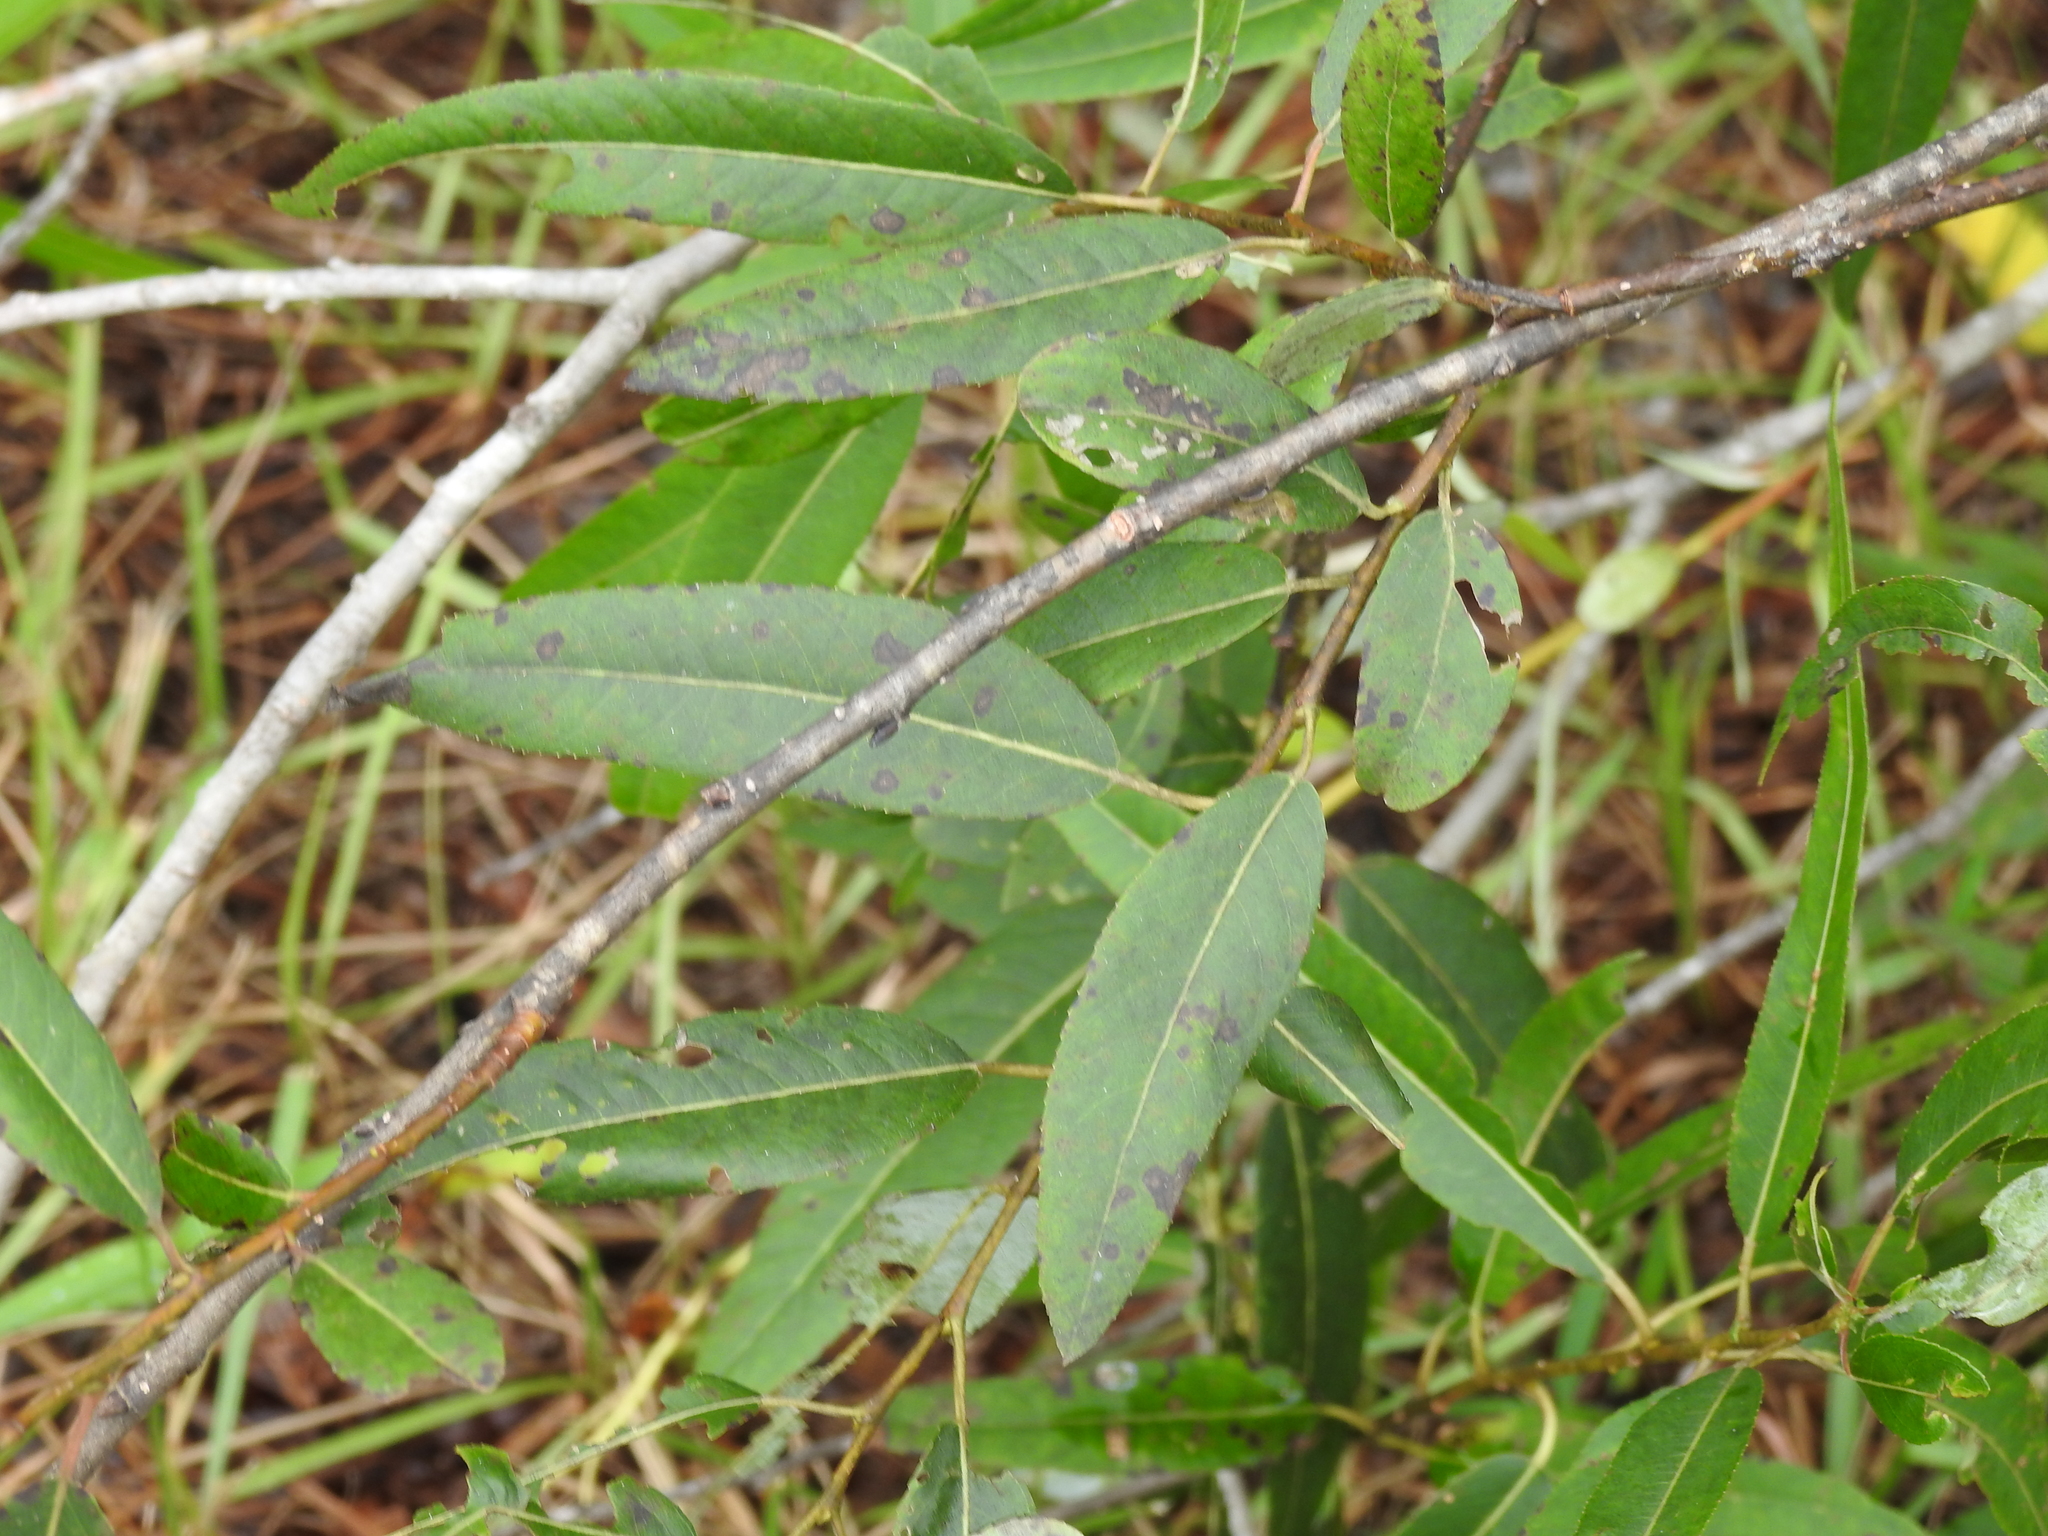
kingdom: Plantae
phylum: Tracheophyta
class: Magnoliopsida
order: Malpighiales
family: Salicaceae
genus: Salix
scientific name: Salix caroliniana
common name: Carolina willow
